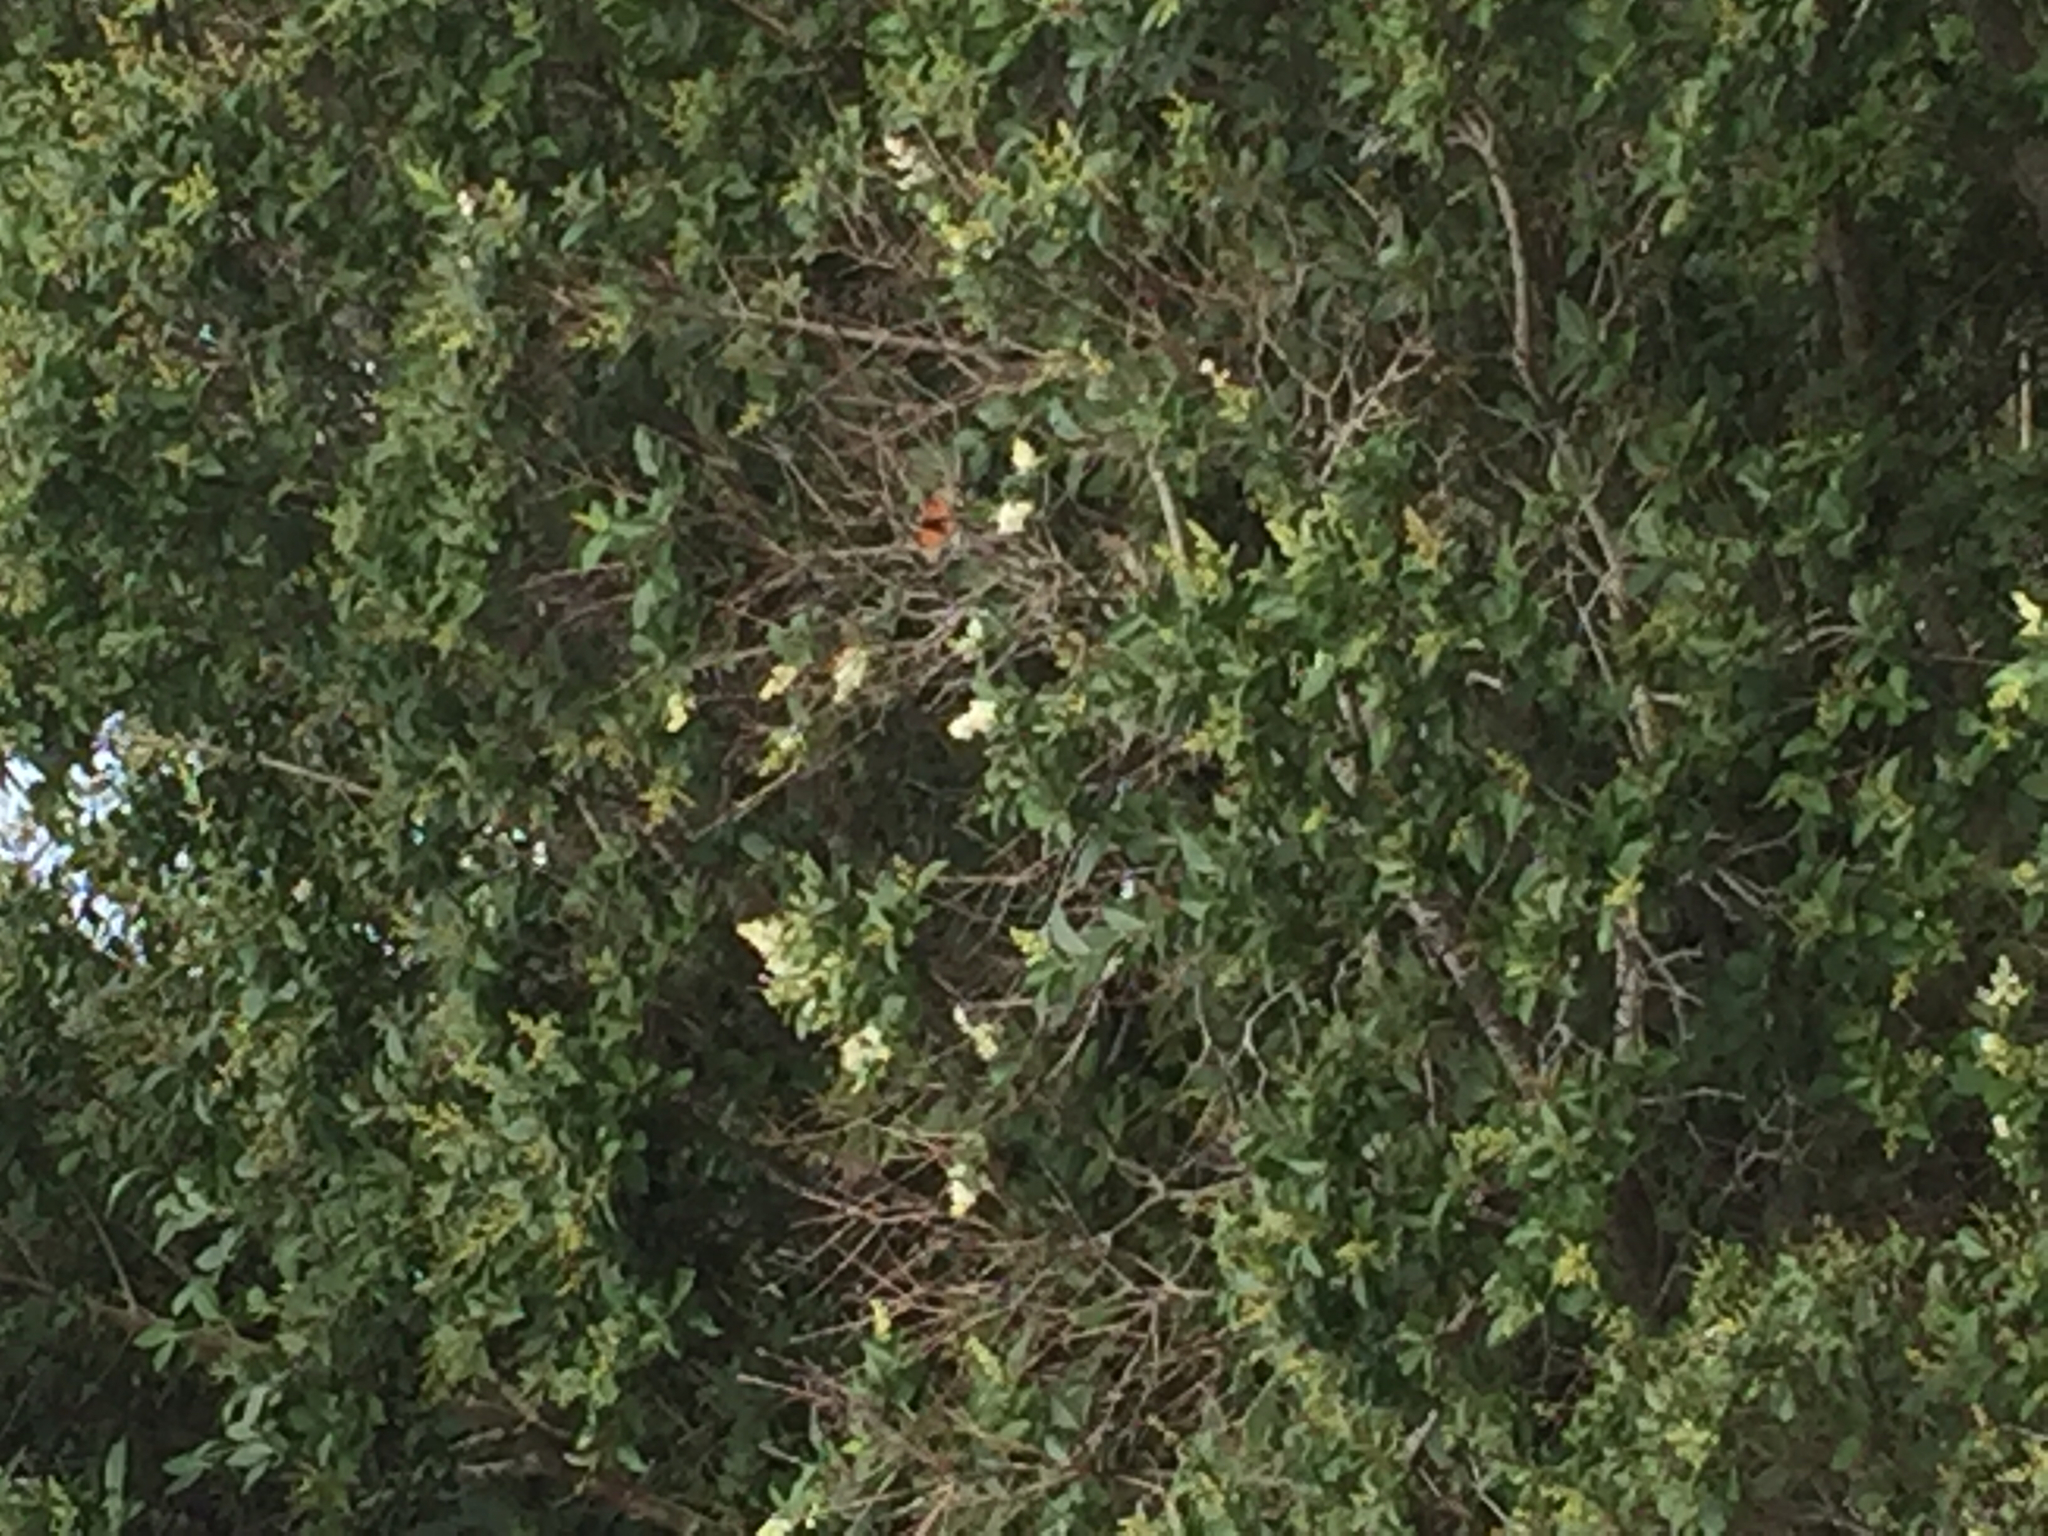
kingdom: Animalia
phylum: Arthropoda
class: Insecta
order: Lepidoptera
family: Nymphalidae
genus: Danaus
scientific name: Danaus plexippus
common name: Monarch
